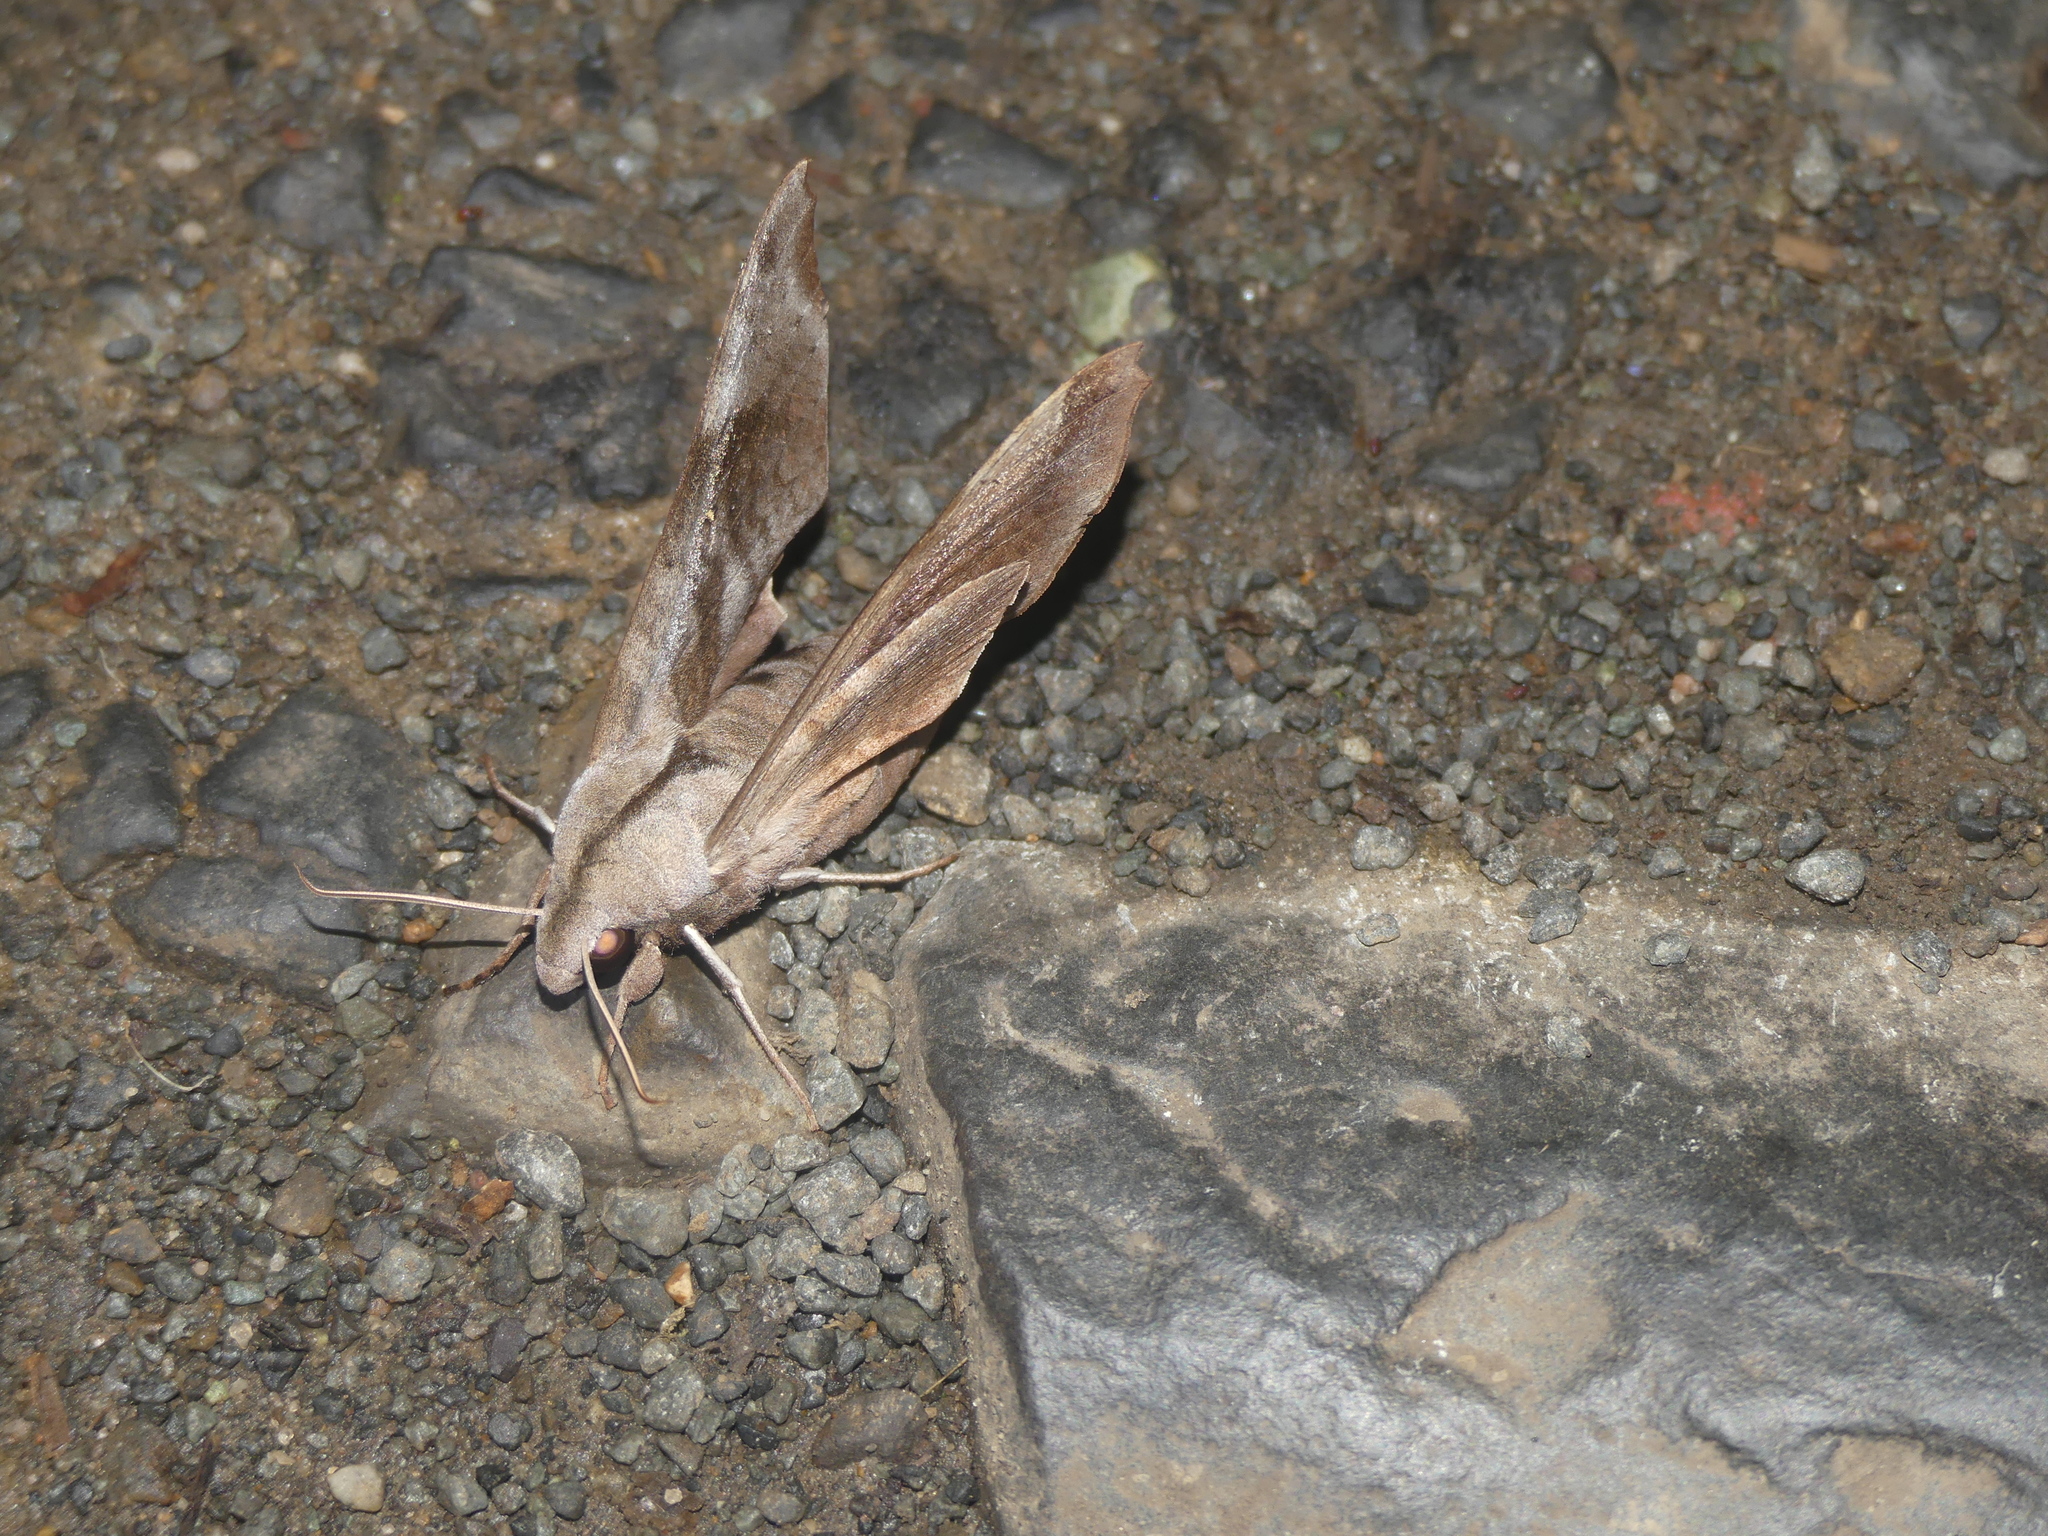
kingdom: Animalia
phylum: Arthropoda
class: Insecta
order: Lepidoptera
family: Sphingidae
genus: Coequosa
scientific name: Coequosa australasiae
